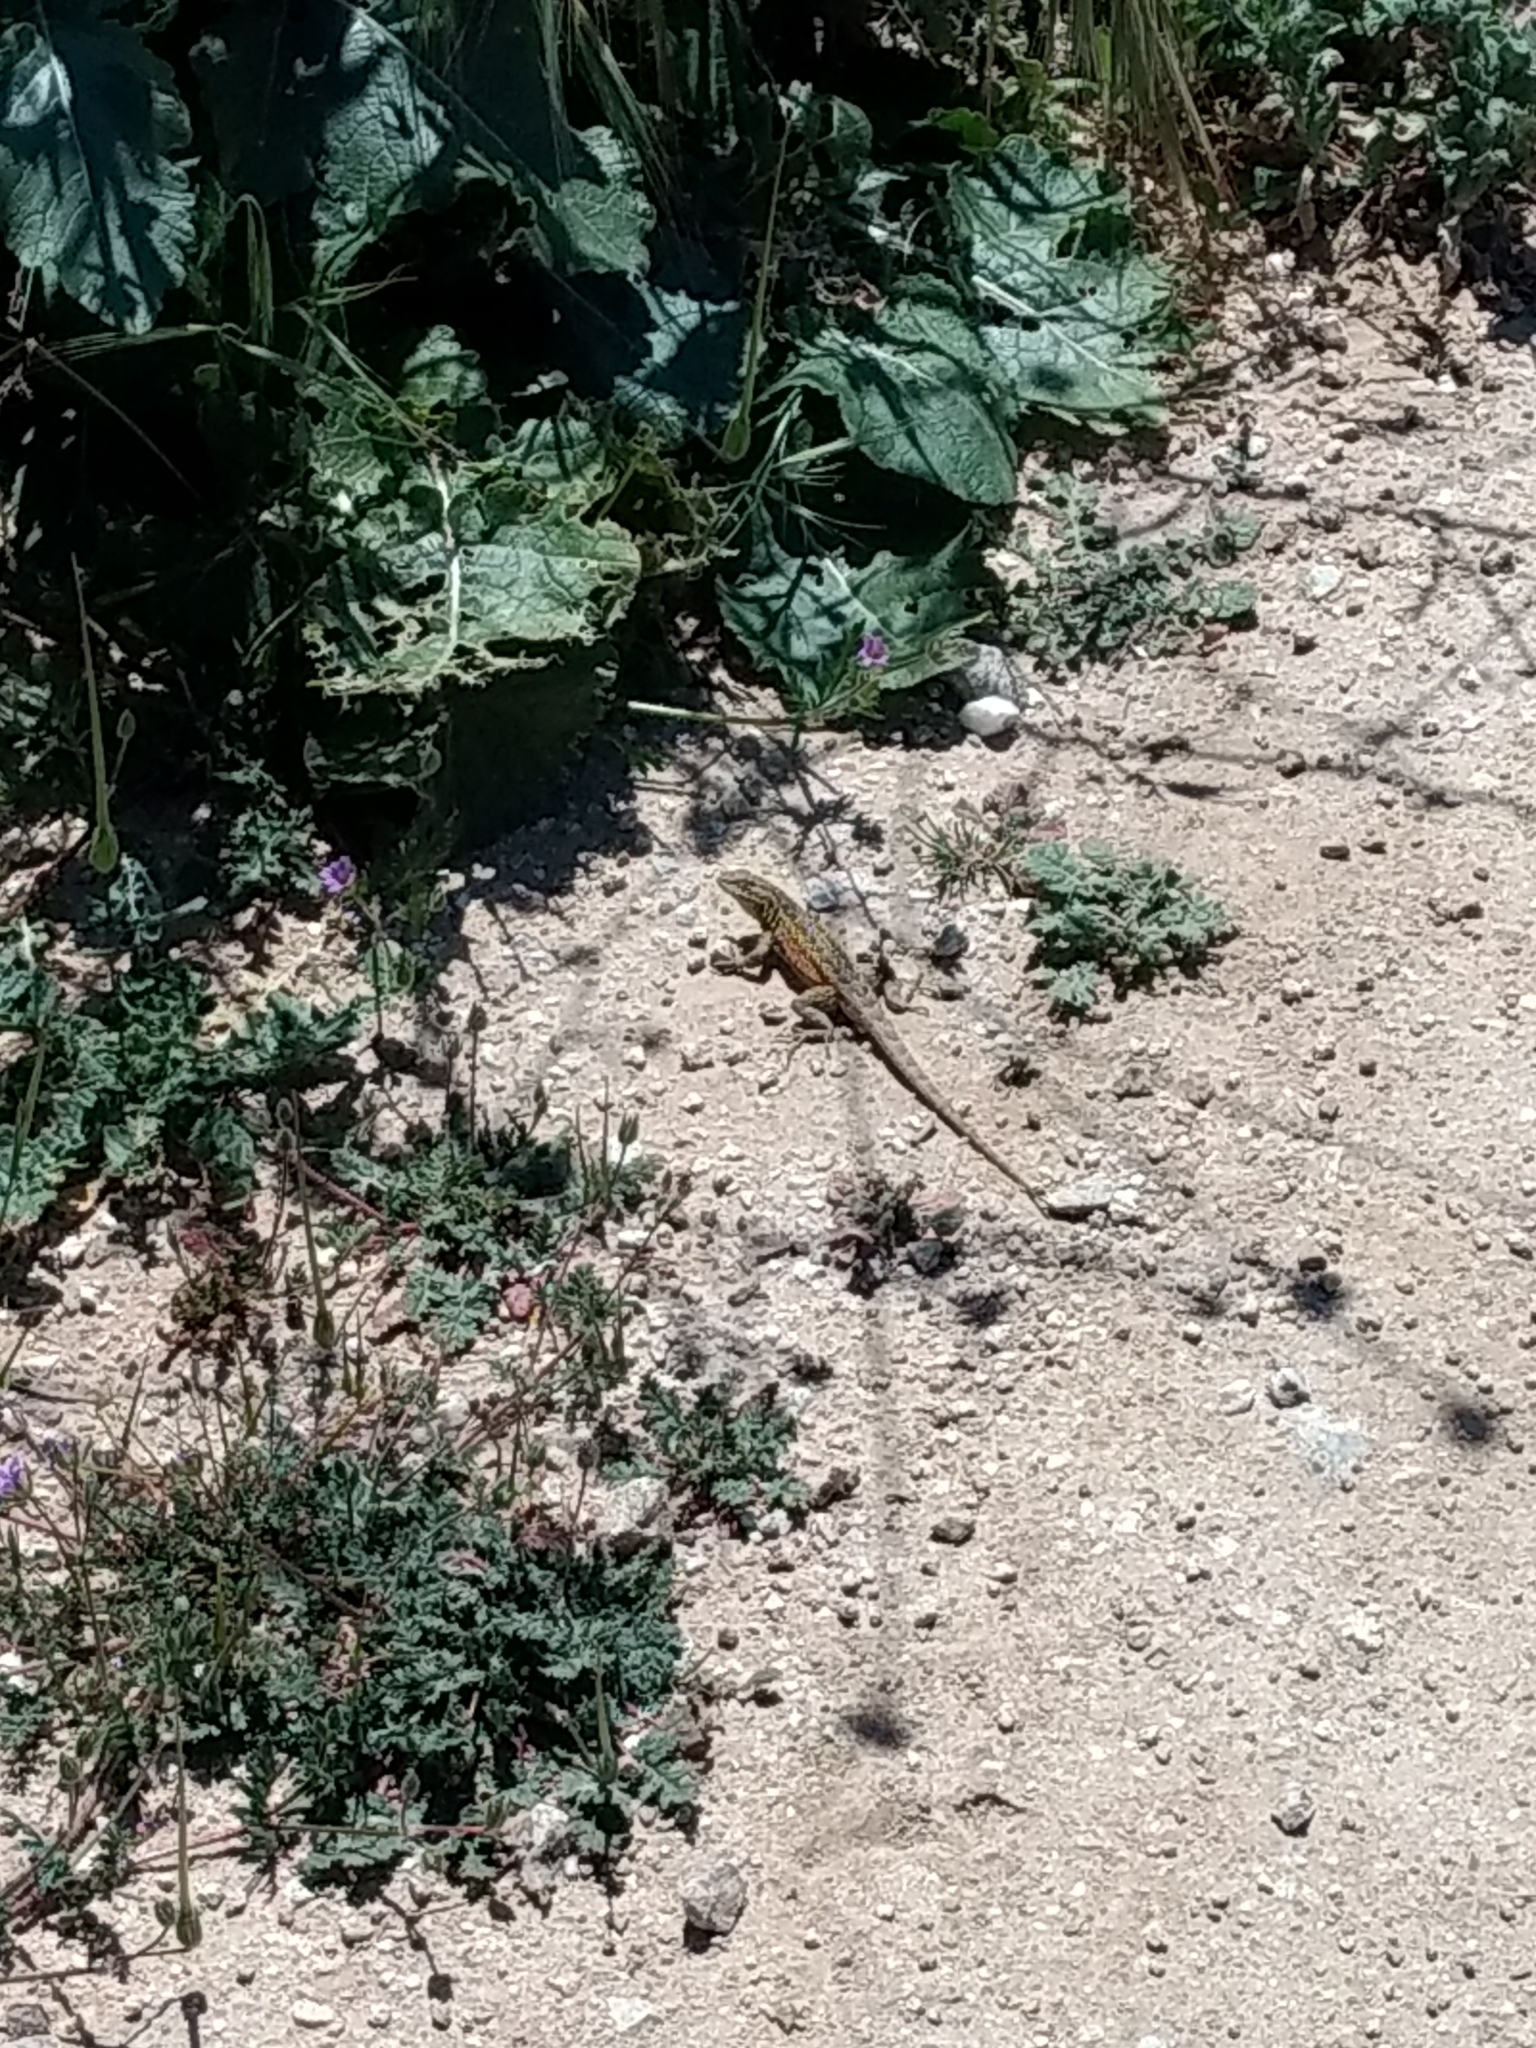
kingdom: Animalia
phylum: Chordata
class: Squamata
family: Phrynosomatidae
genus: Uta
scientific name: Uta stansburiana
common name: Side-blotched lizard
